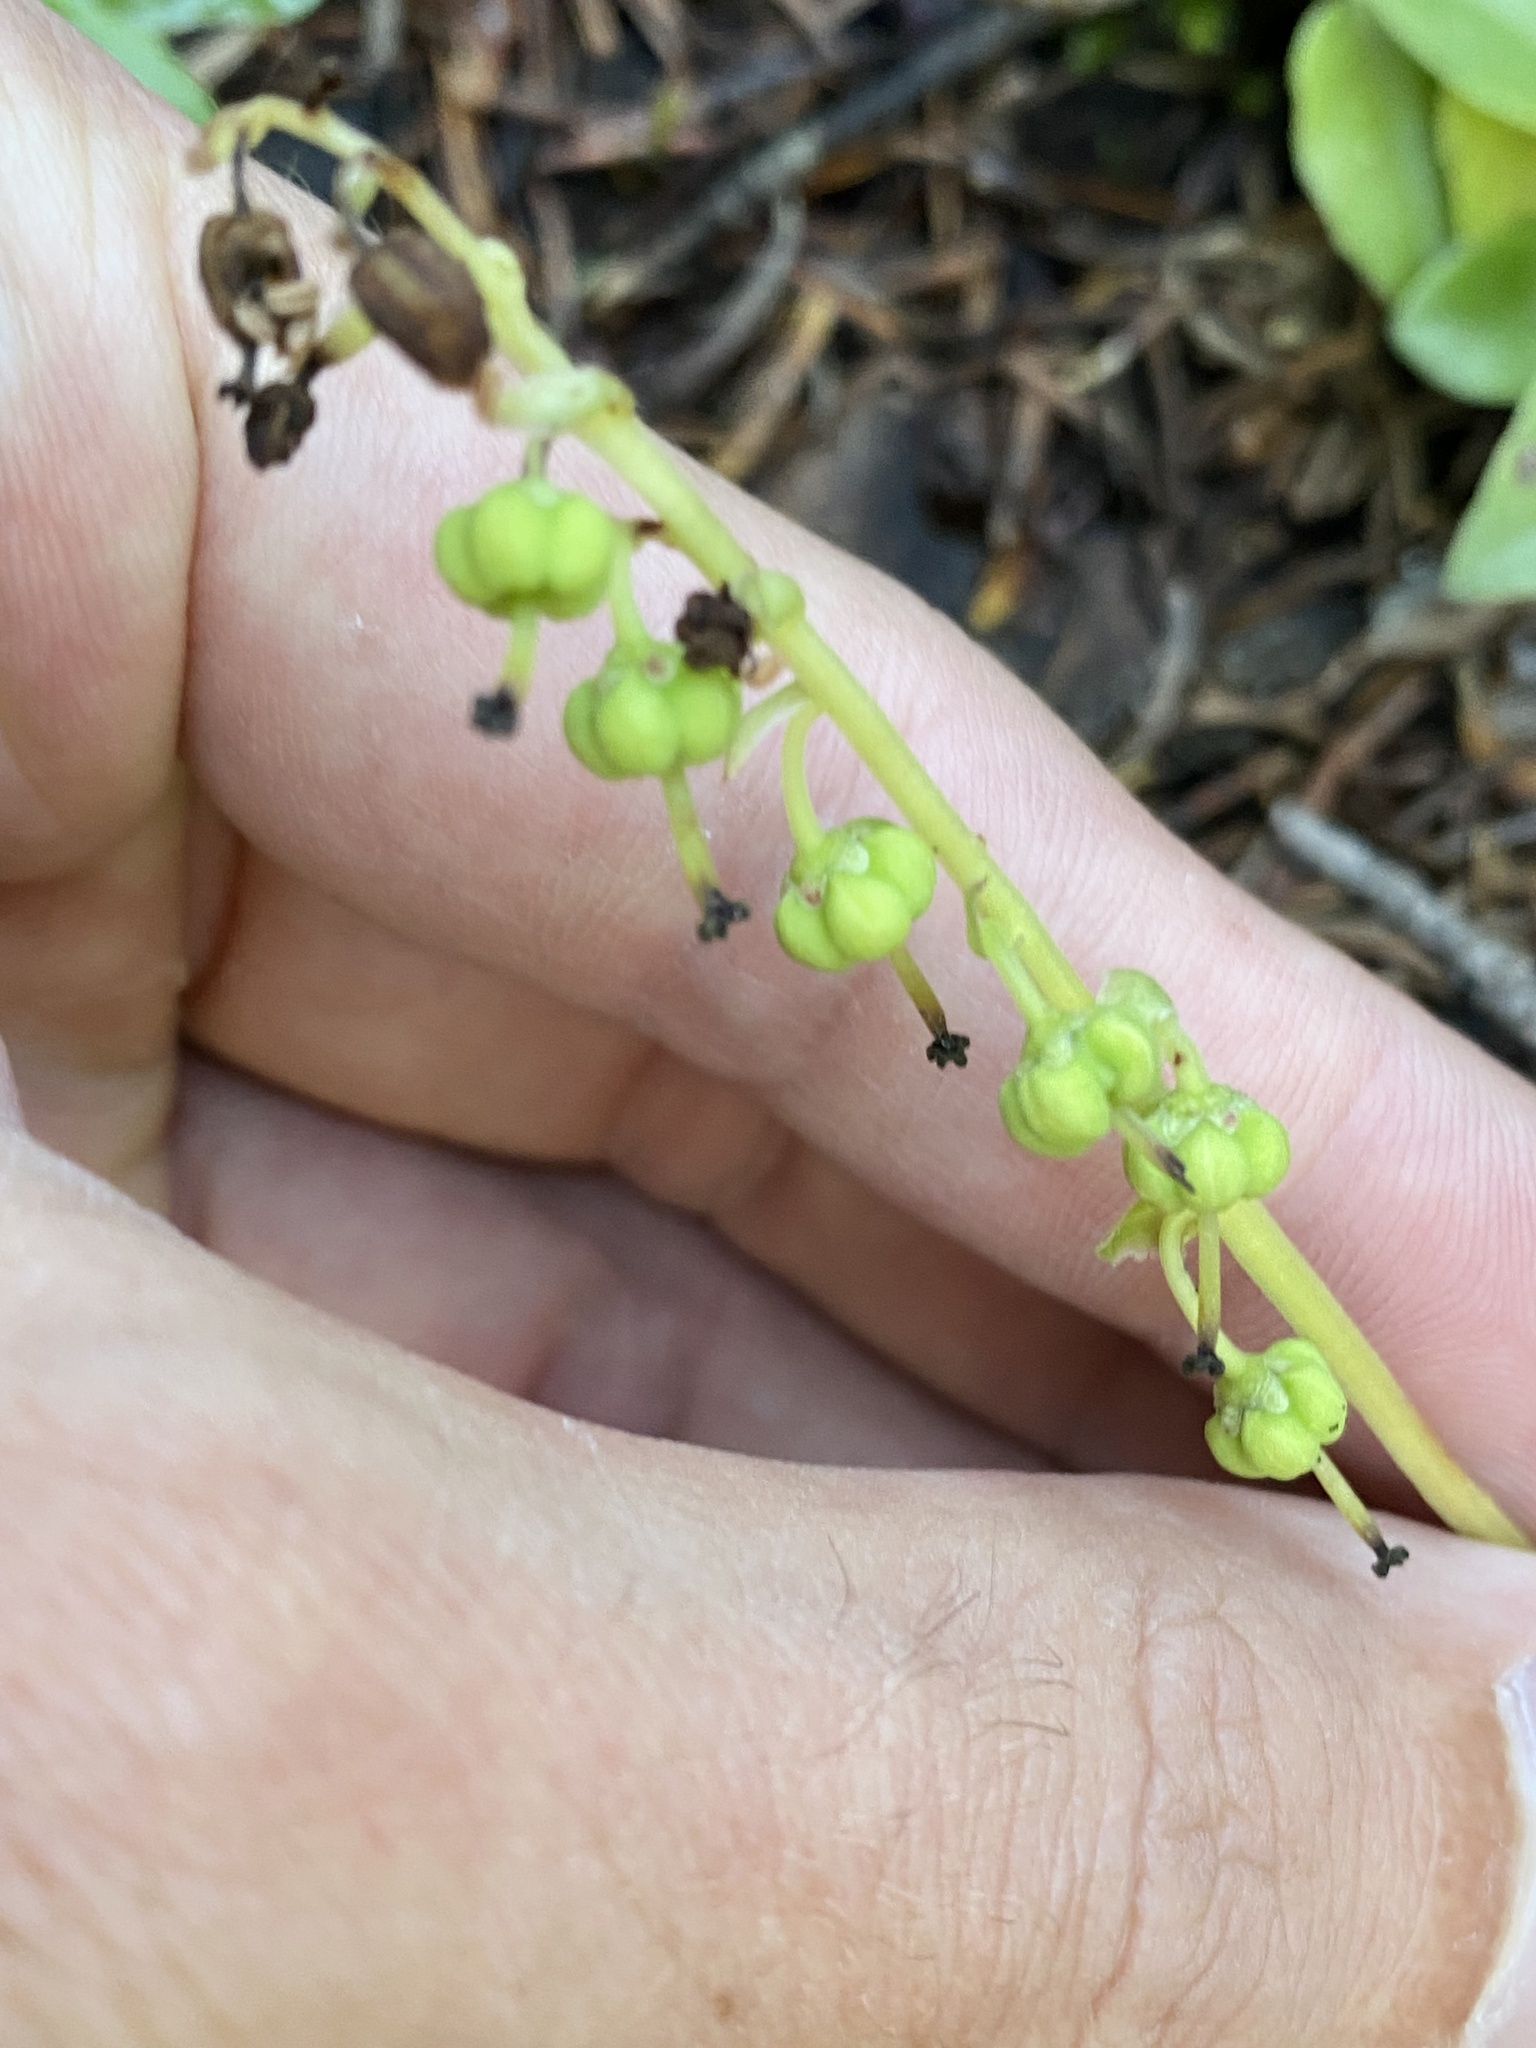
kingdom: Plantae
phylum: Tracheophyta
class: Magnoliopsida
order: Ericales
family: Ericaceae
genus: Orthilia
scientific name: Orthilia secunda
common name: One-sided orthilia
